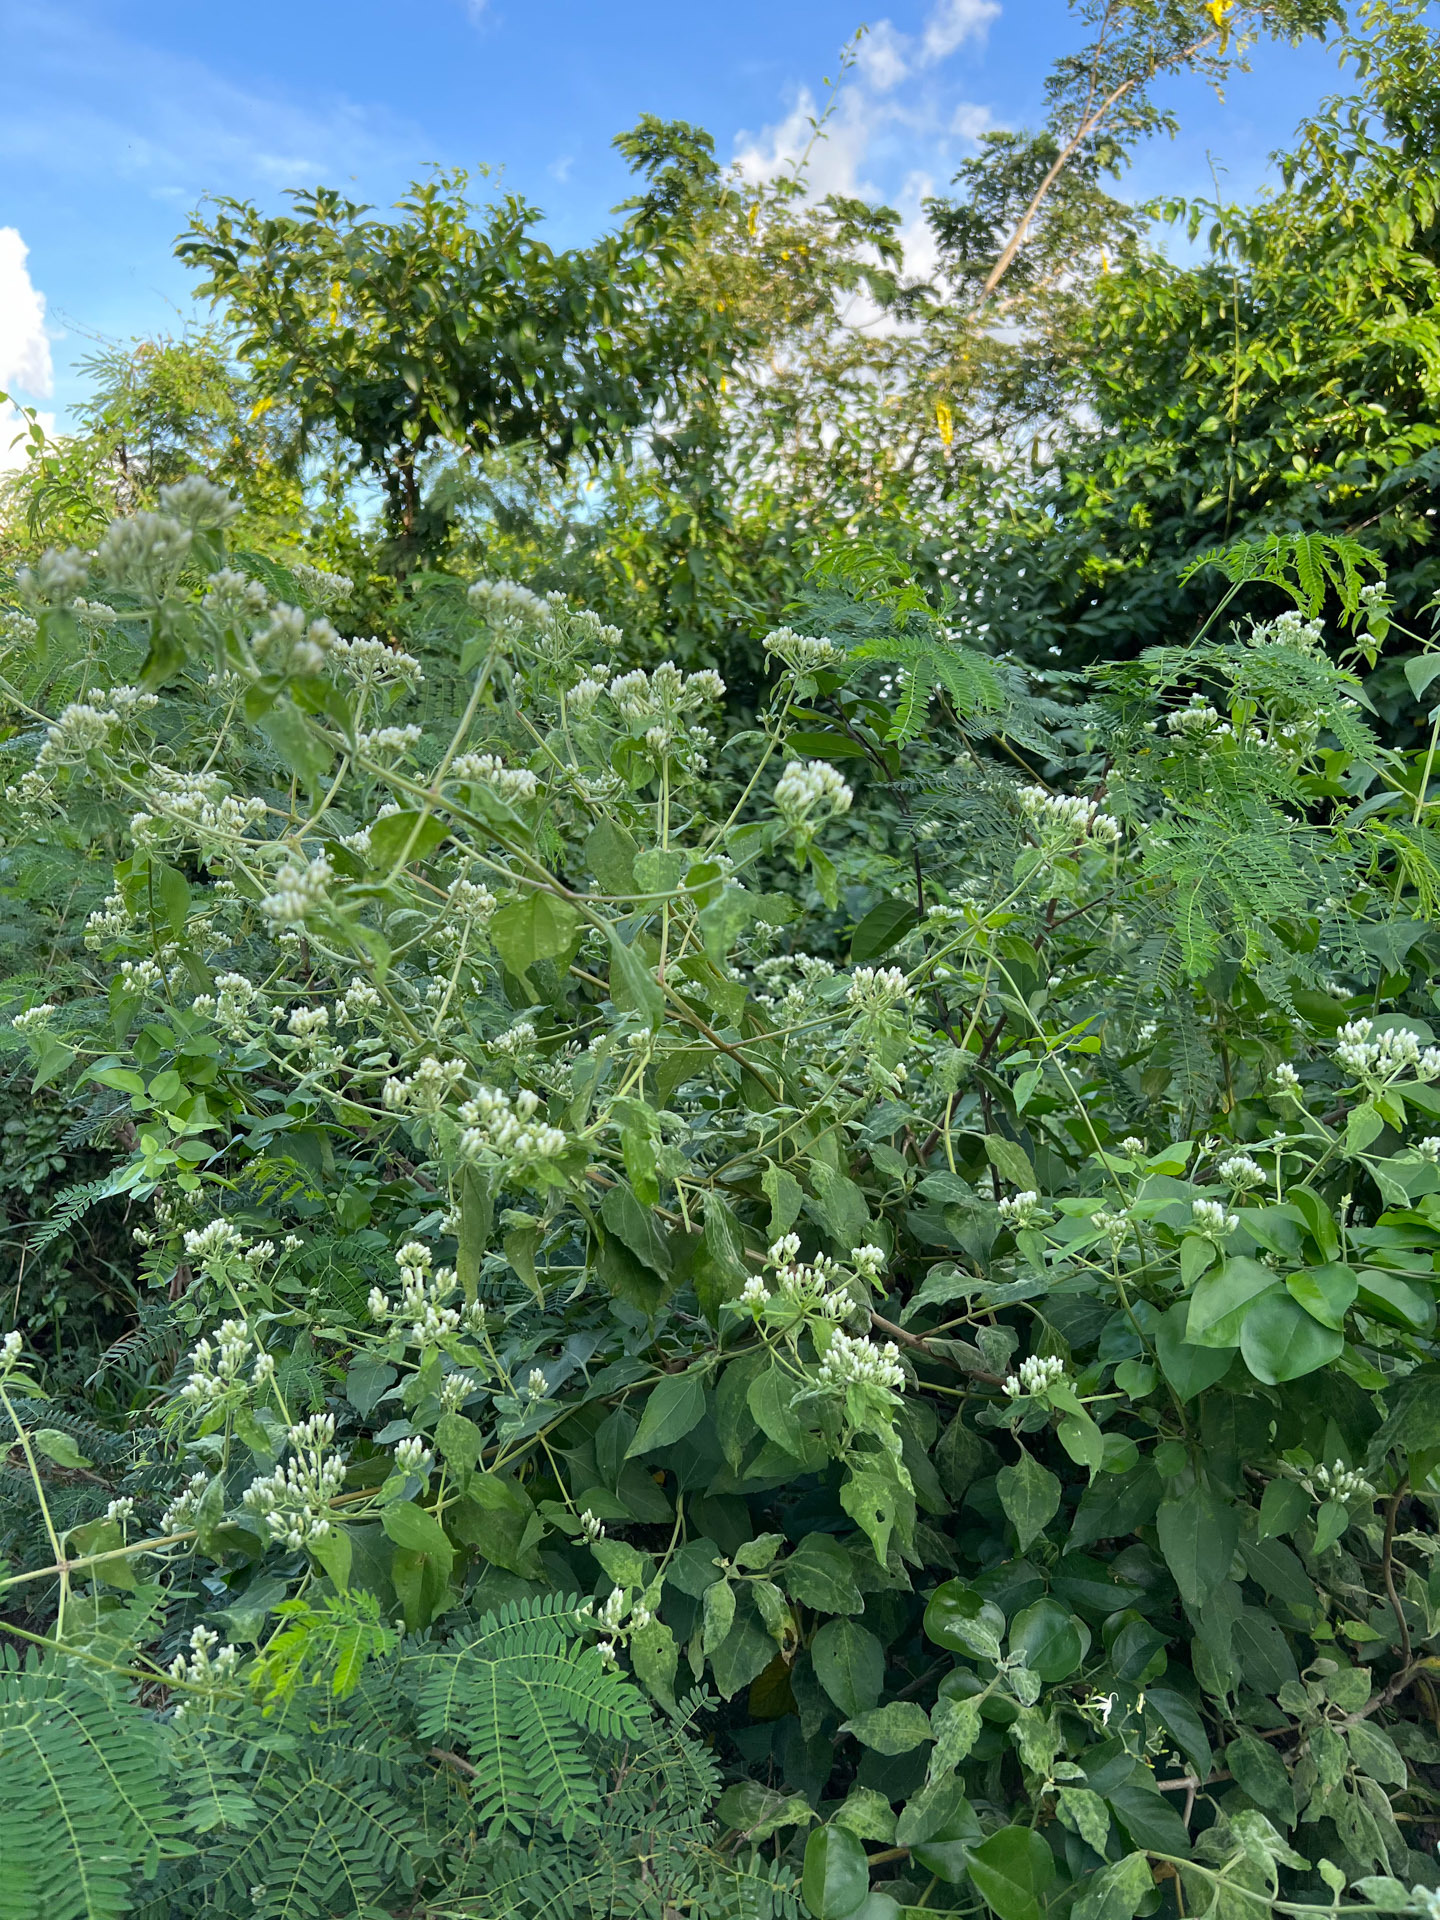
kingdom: Plantae
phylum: Tracheophyta
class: Magnoliopsida
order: Asterales
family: Asteraceae
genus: Chromolaena
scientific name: Chromolaena odorata
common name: Siamweed
